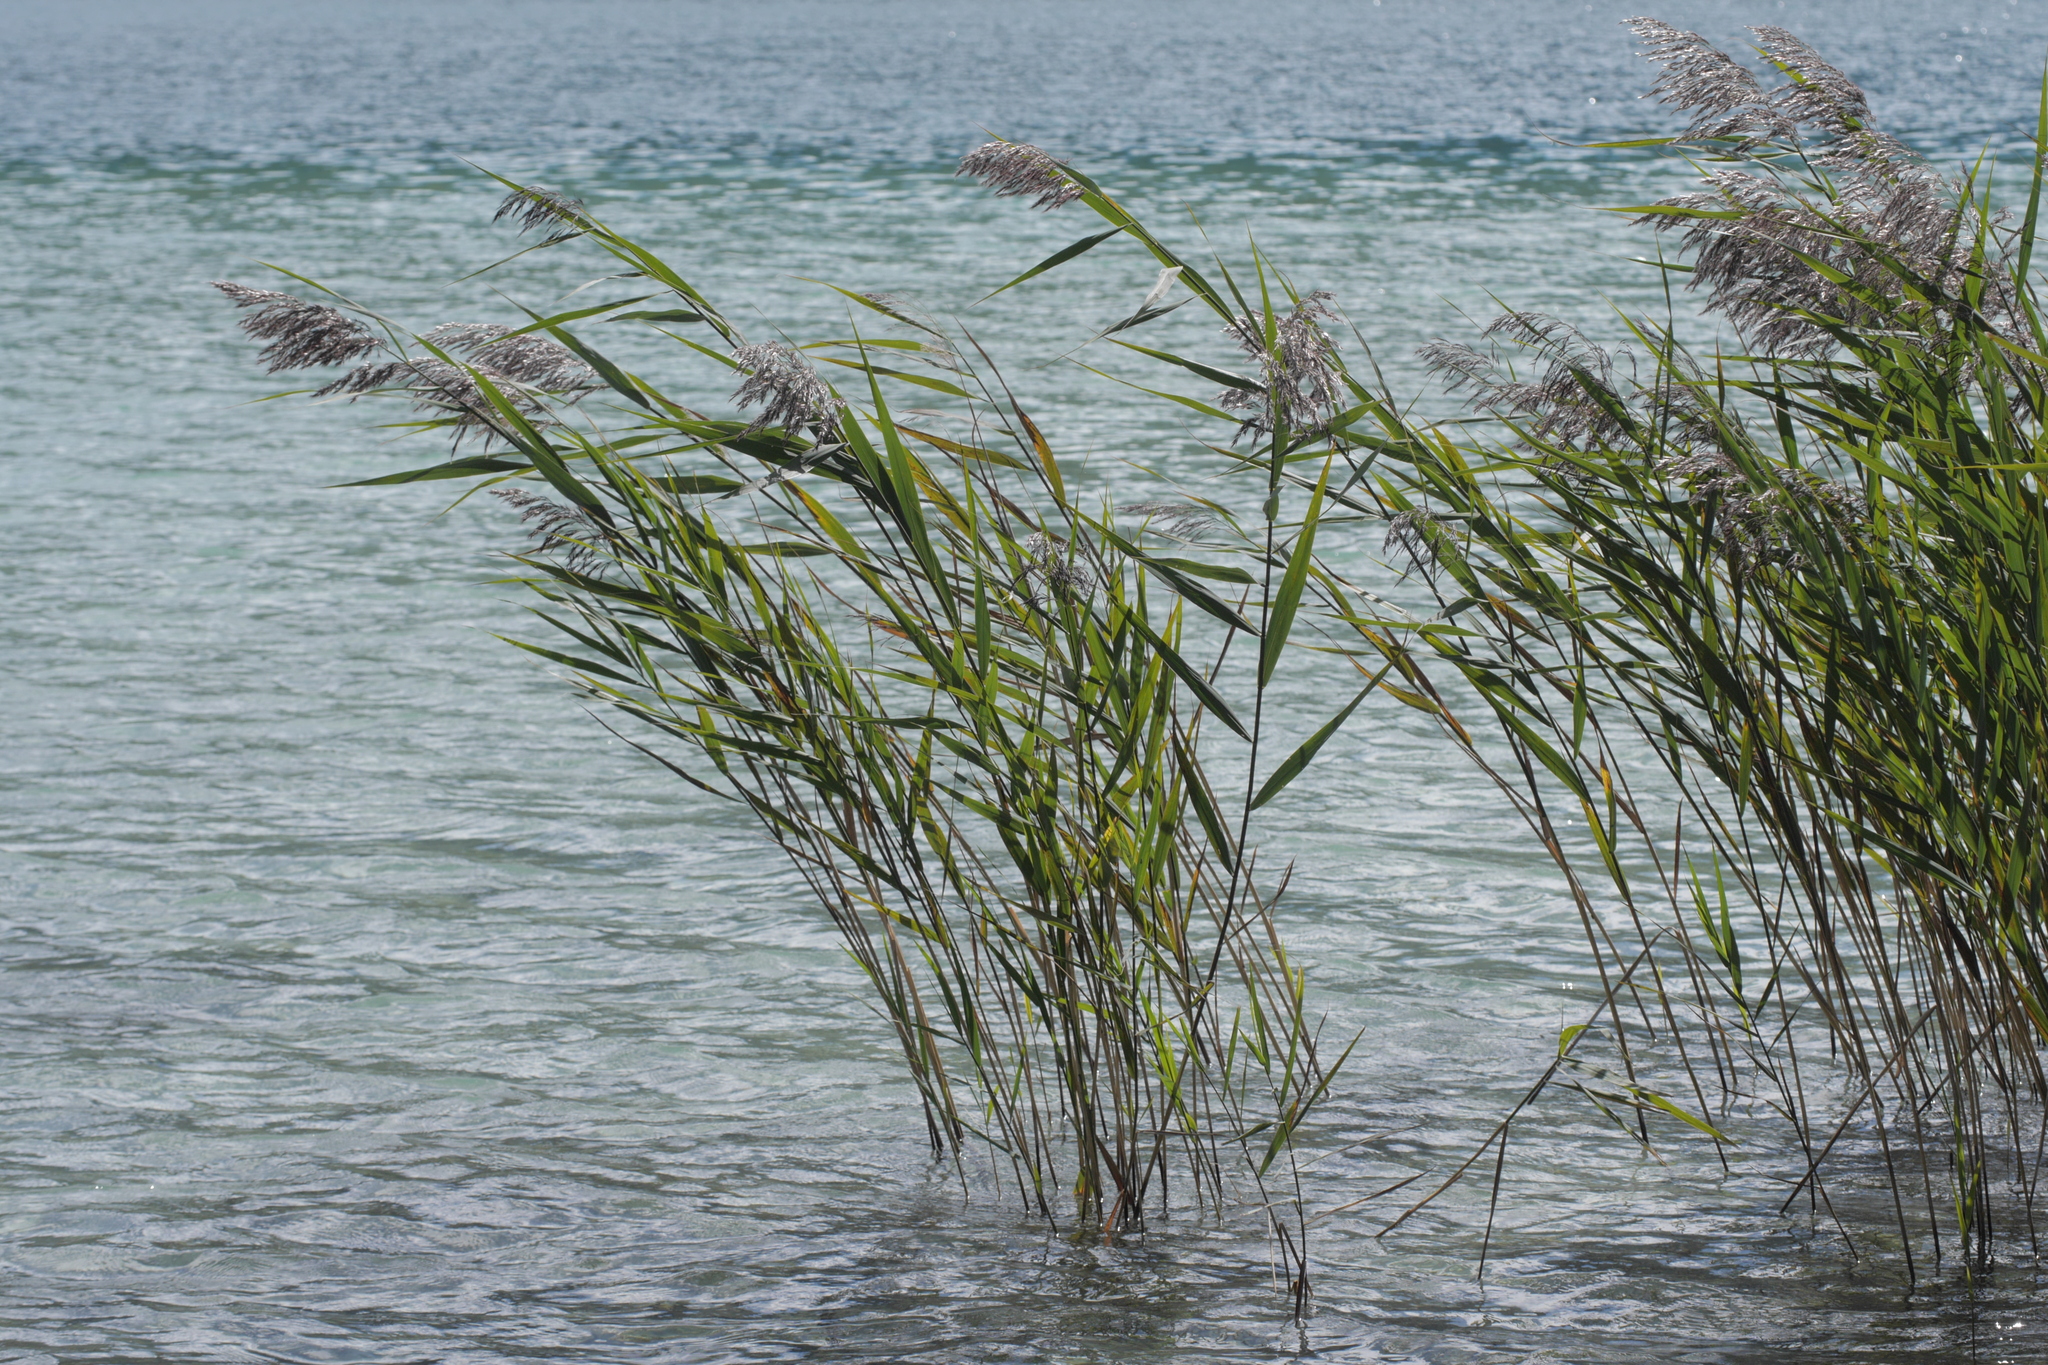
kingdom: Plantae
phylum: Tracheophyta
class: Liliopsida
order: Poales
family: Poaceae
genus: Phragmites
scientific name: Phragmites australis
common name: Common reed
